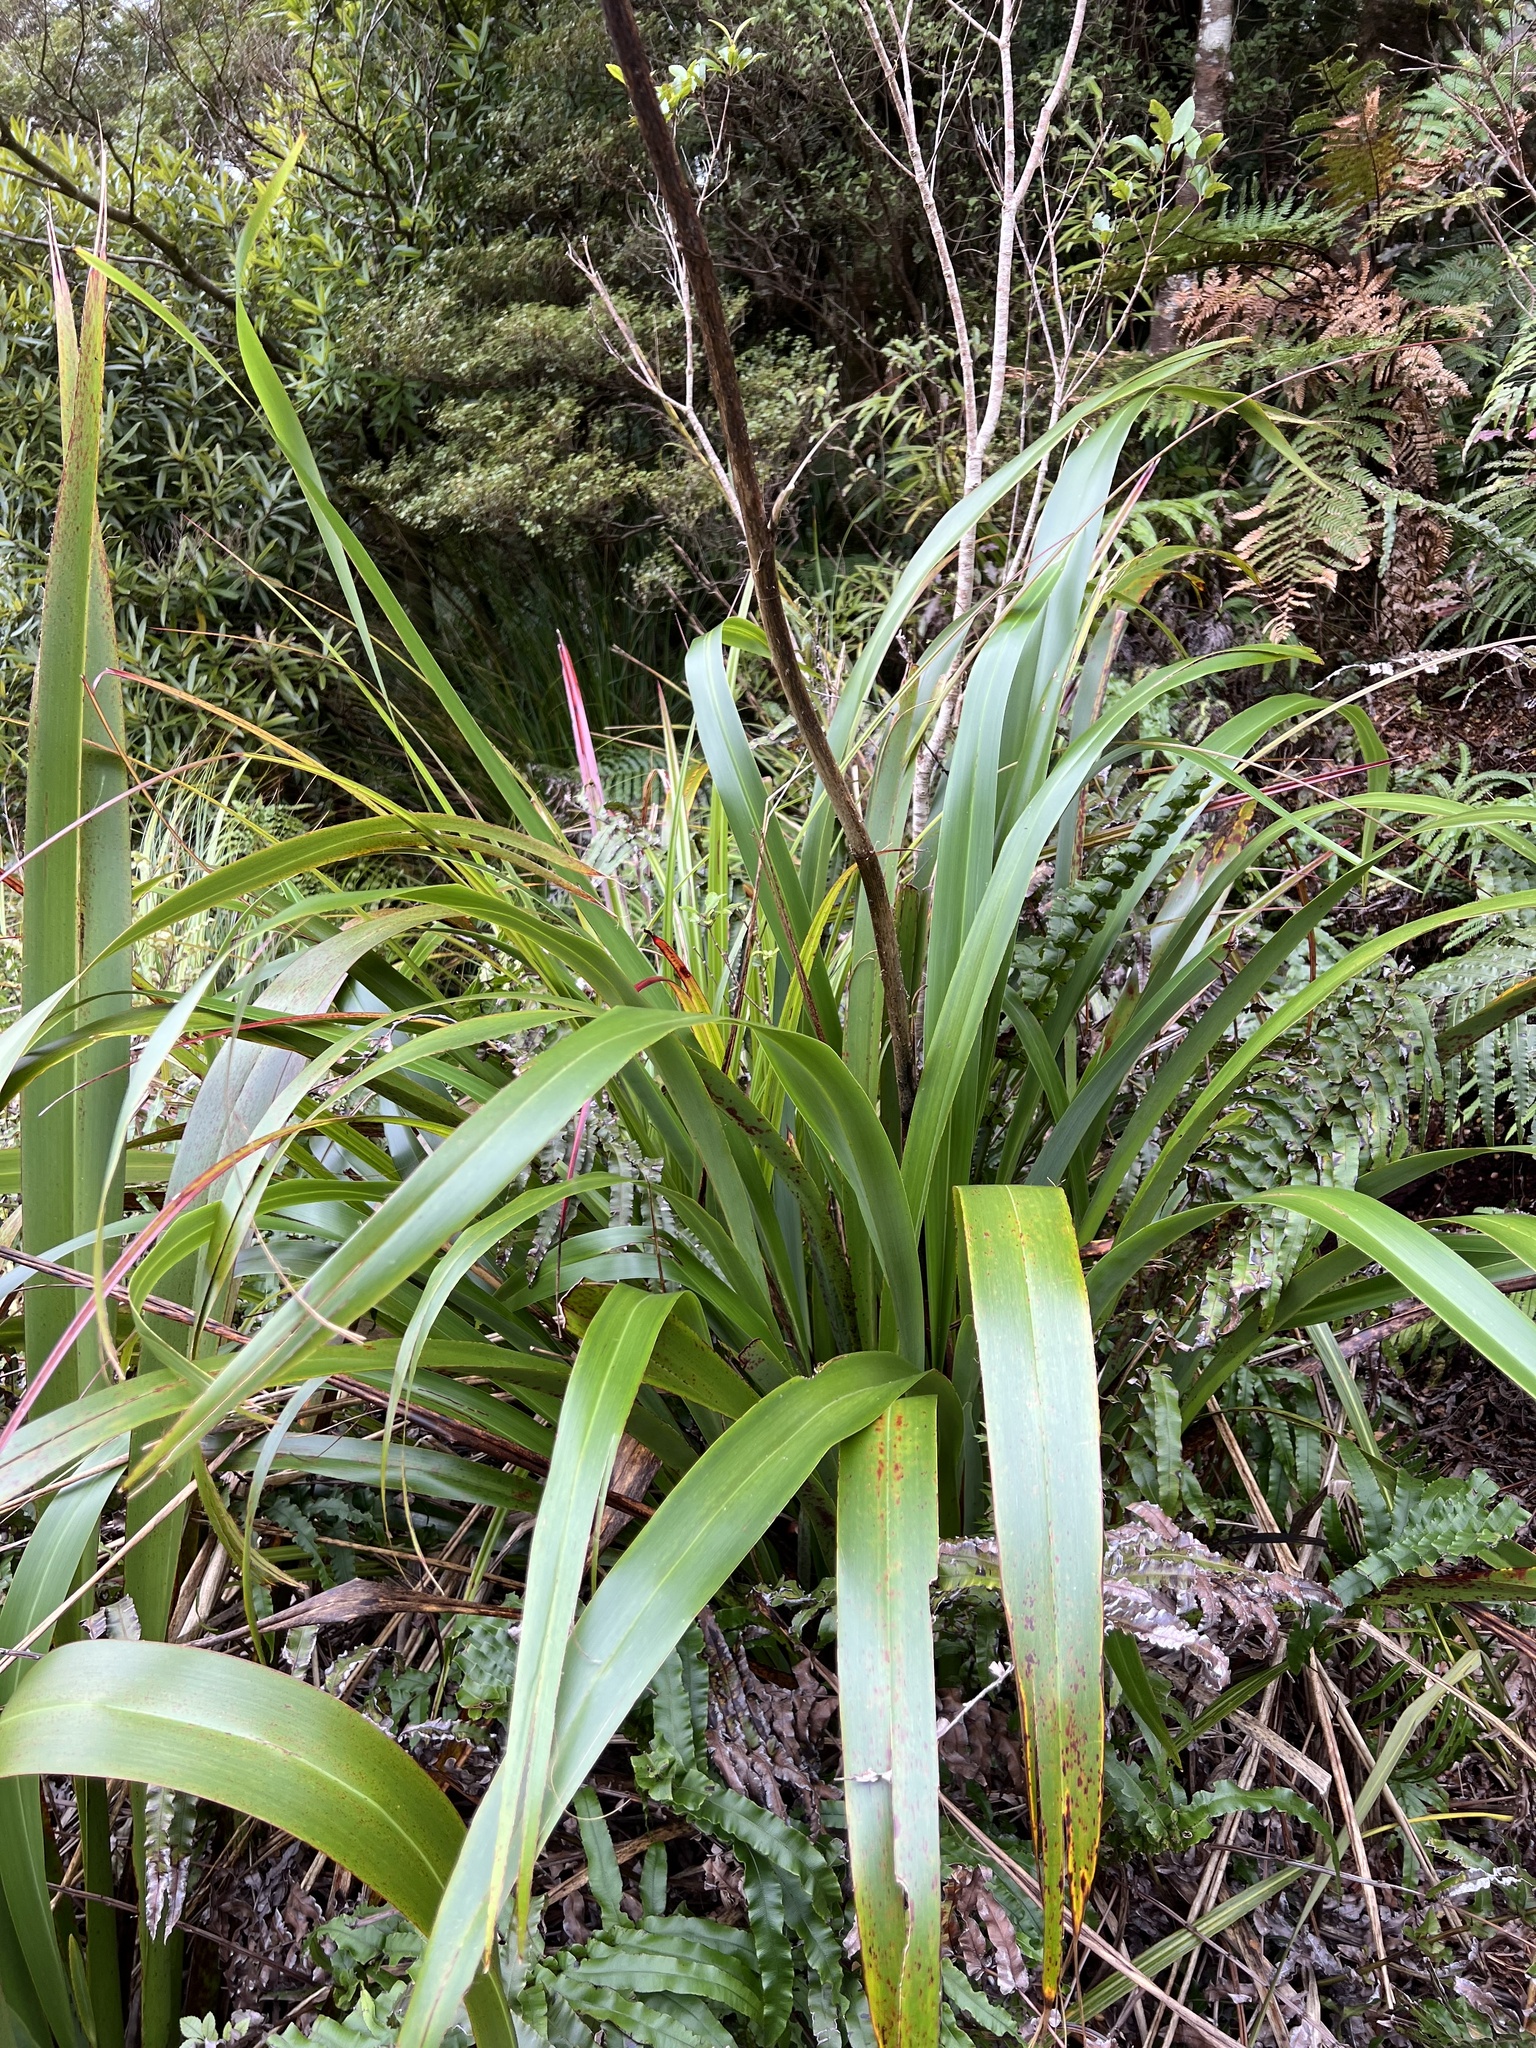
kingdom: Plantae
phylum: Tracheophyta
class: Liliopsida
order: Asparagales
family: Asphodelaceae
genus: Phormium
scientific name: Phormium colensoi
